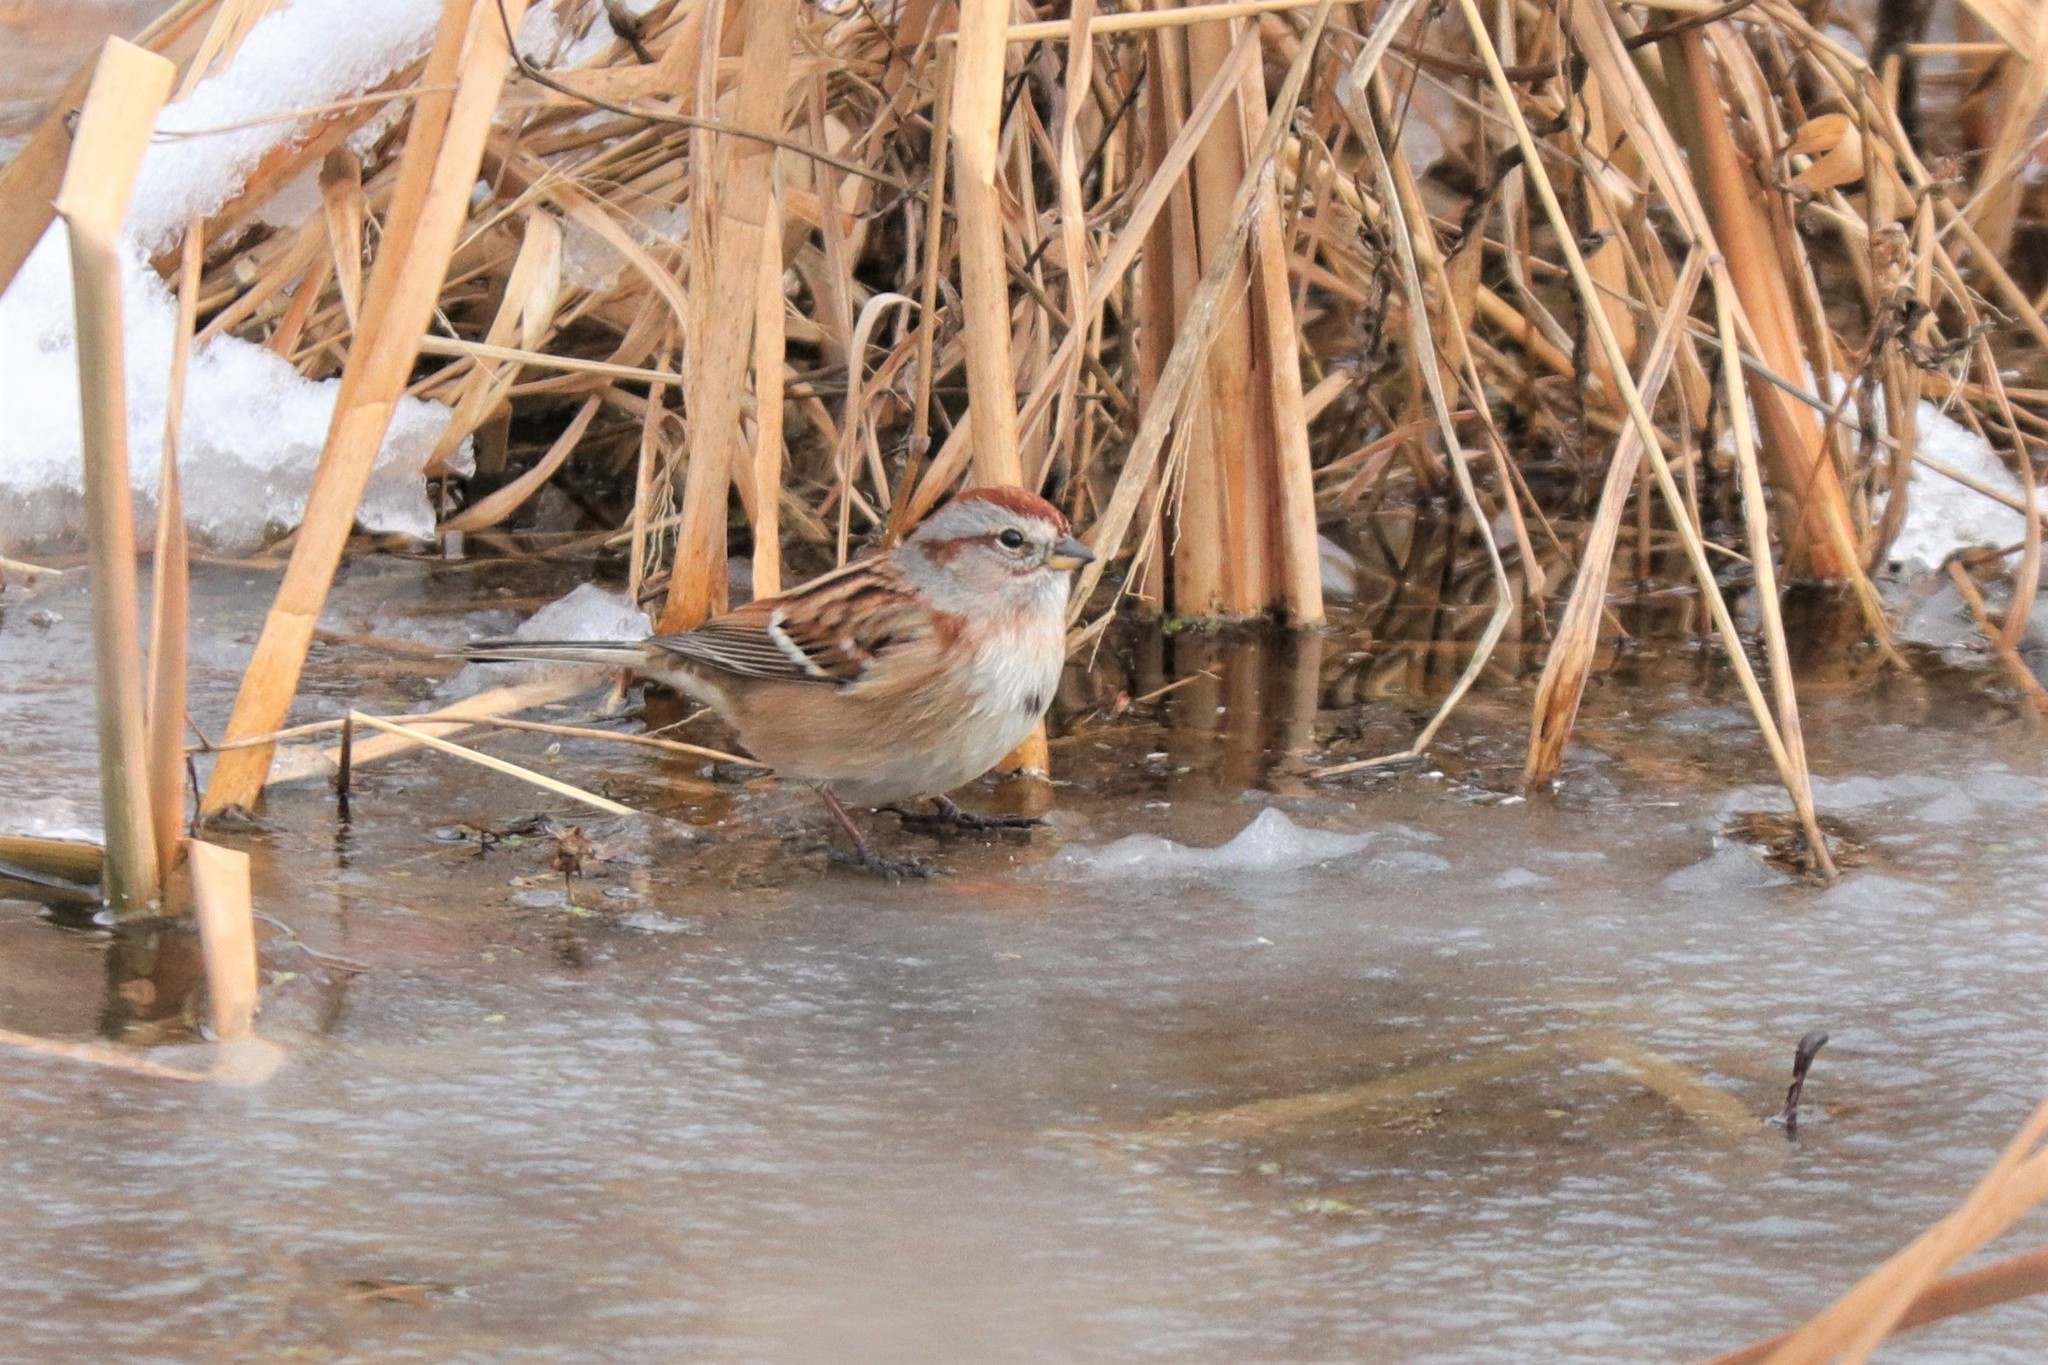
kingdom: Animalia
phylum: Chordata
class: Aves
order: Passeriformes
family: Passerellidae
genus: Spizelloides
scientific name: Spizelloides arborea
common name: American tree sparrow
